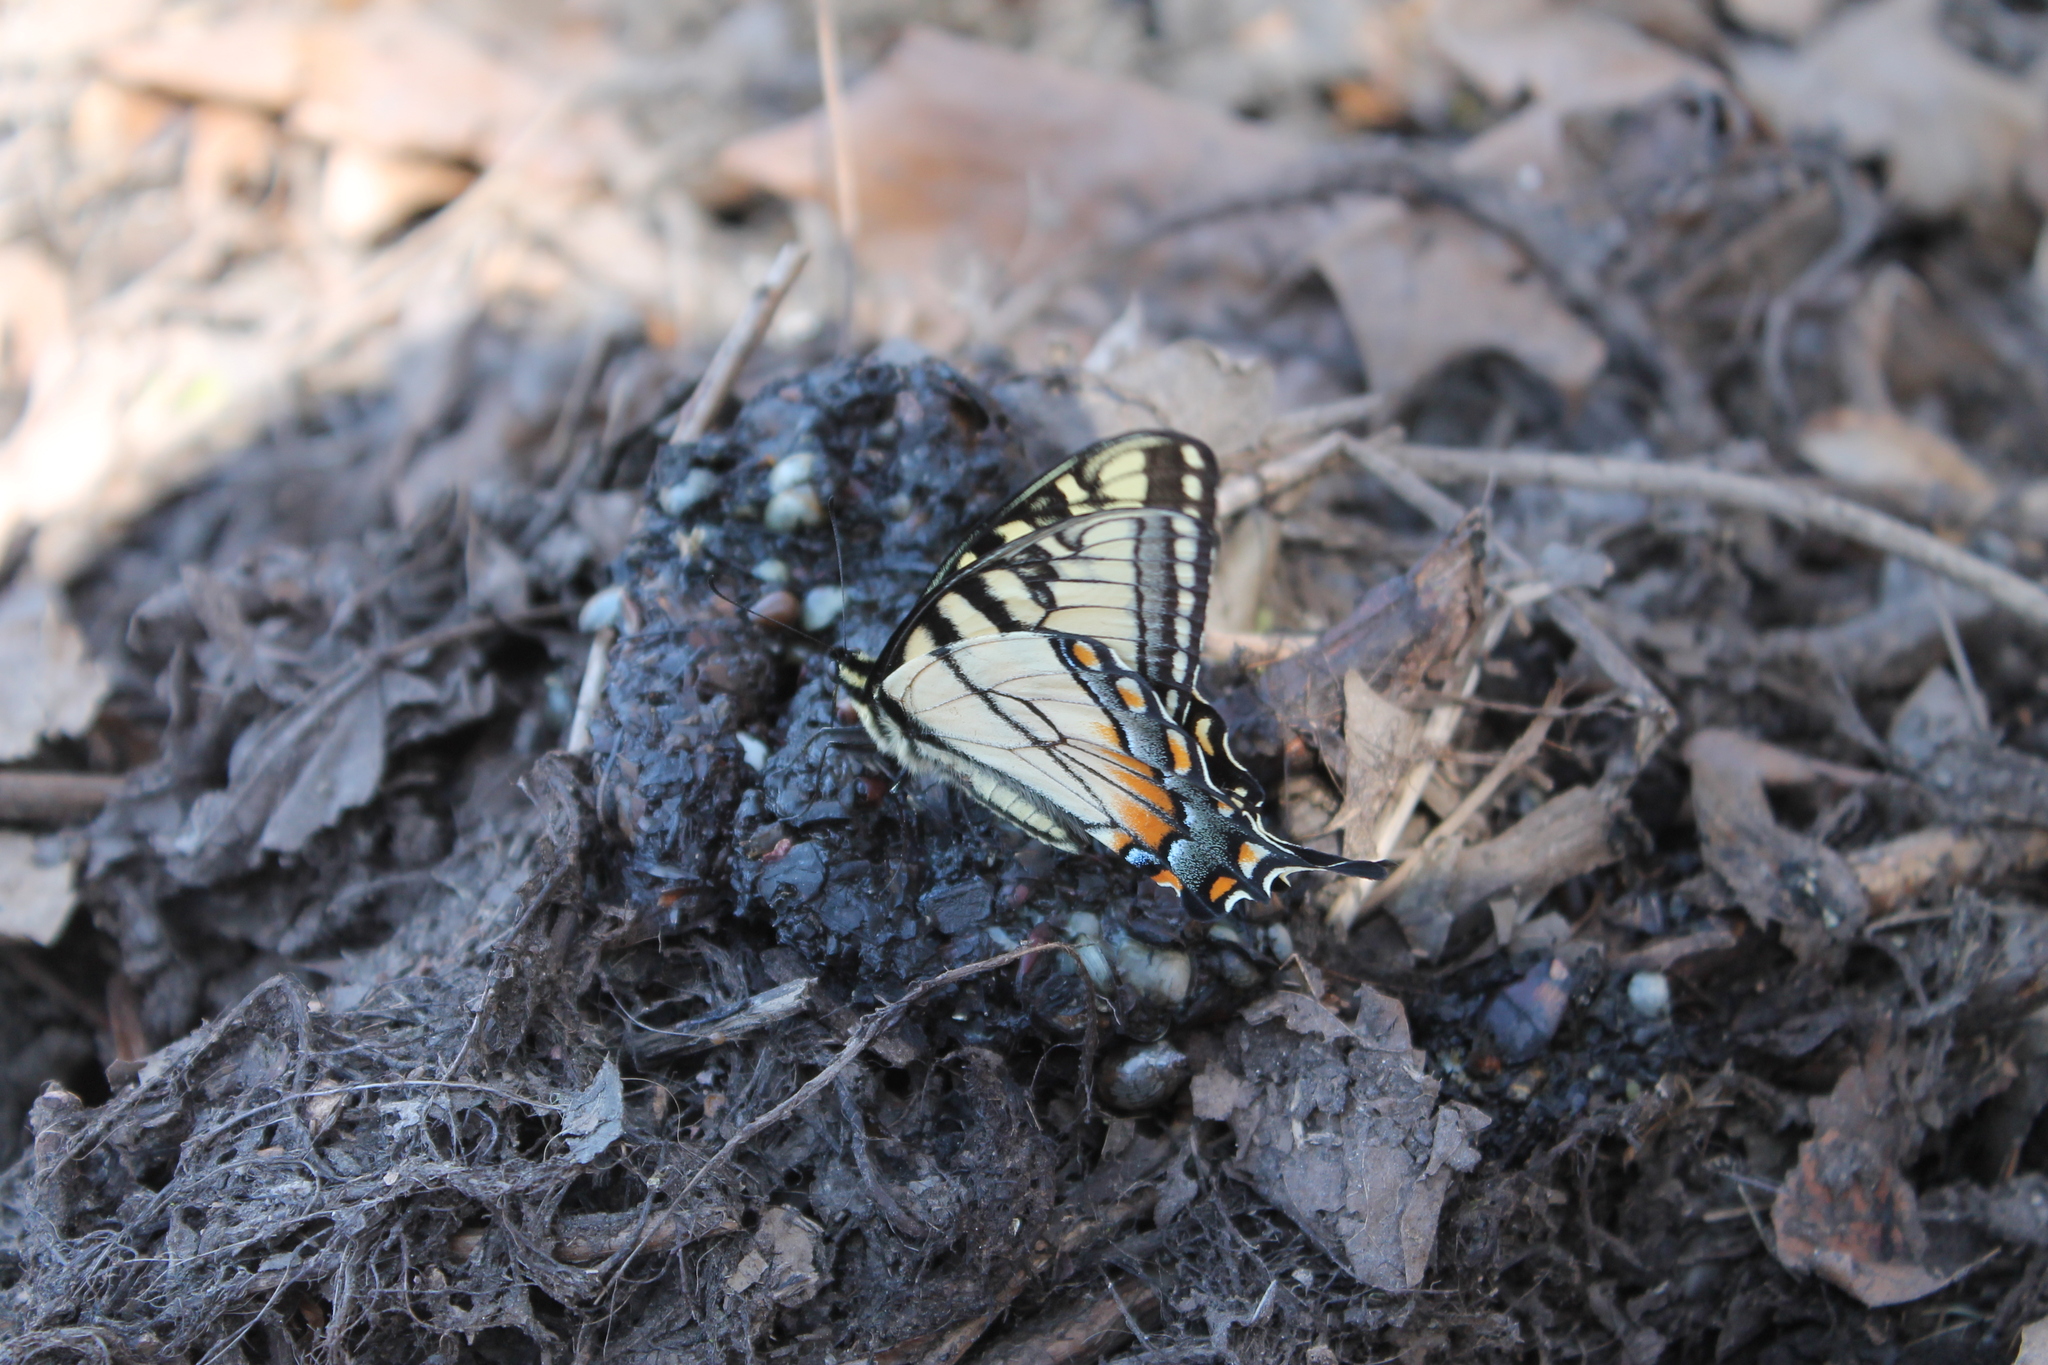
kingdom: Animalia
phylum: Arthropoda
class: Insecta
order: Lepidoptera
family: Papilionidae
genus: Papilio
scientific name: Papilio glaucus
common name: Tiger swallowtail
